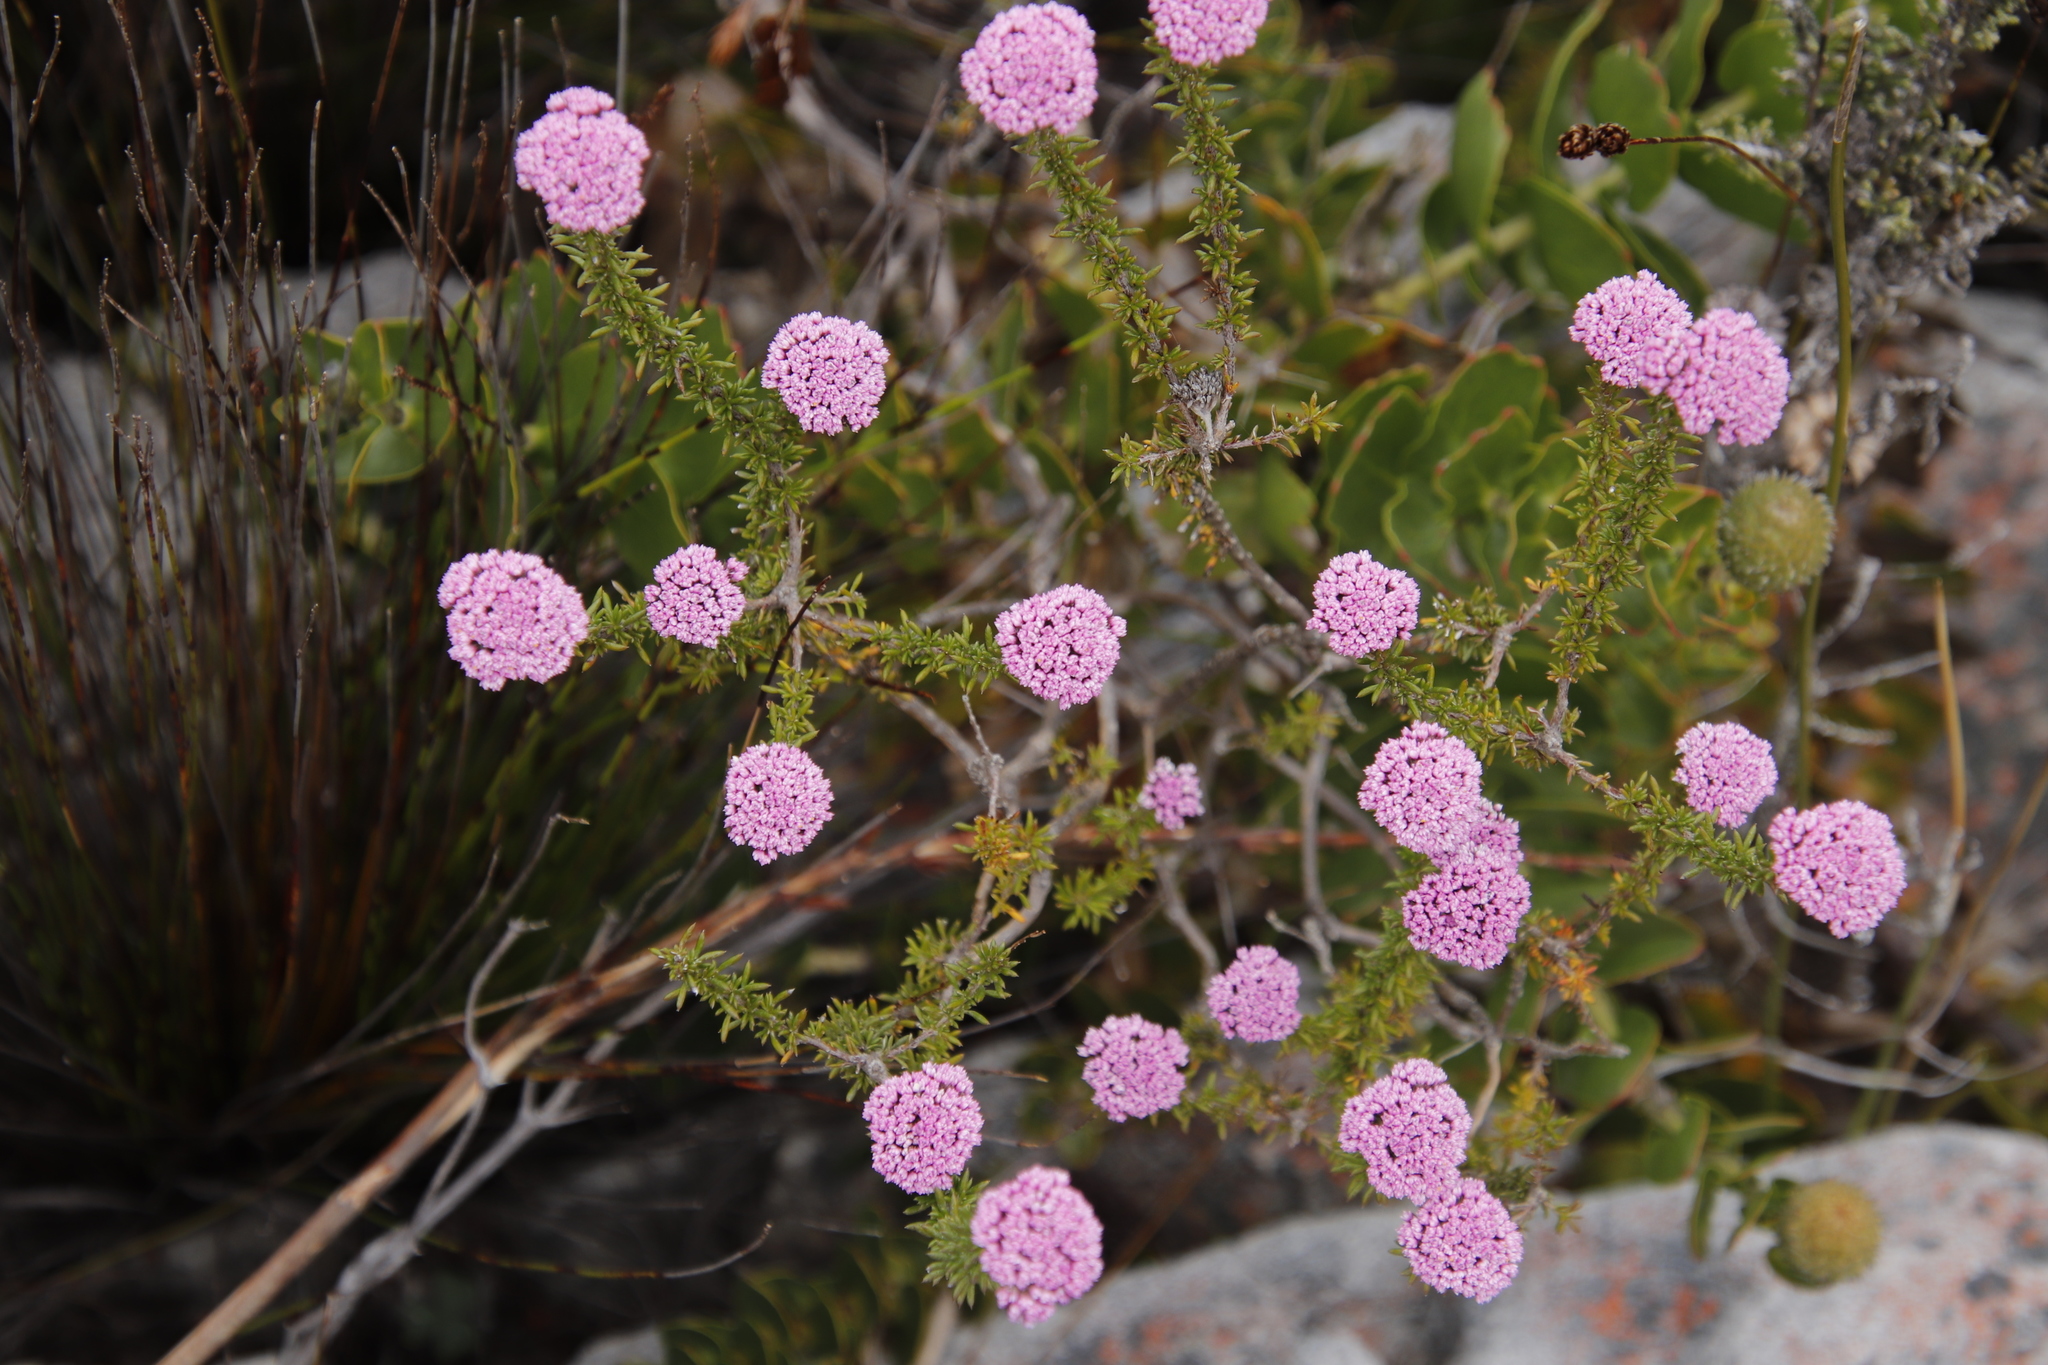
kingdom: Plantae
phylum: Tracheophyta
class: Magnoliopsida
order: Asterales
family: Asteraceae
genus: Metalasia
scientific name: Metalasia serrata
